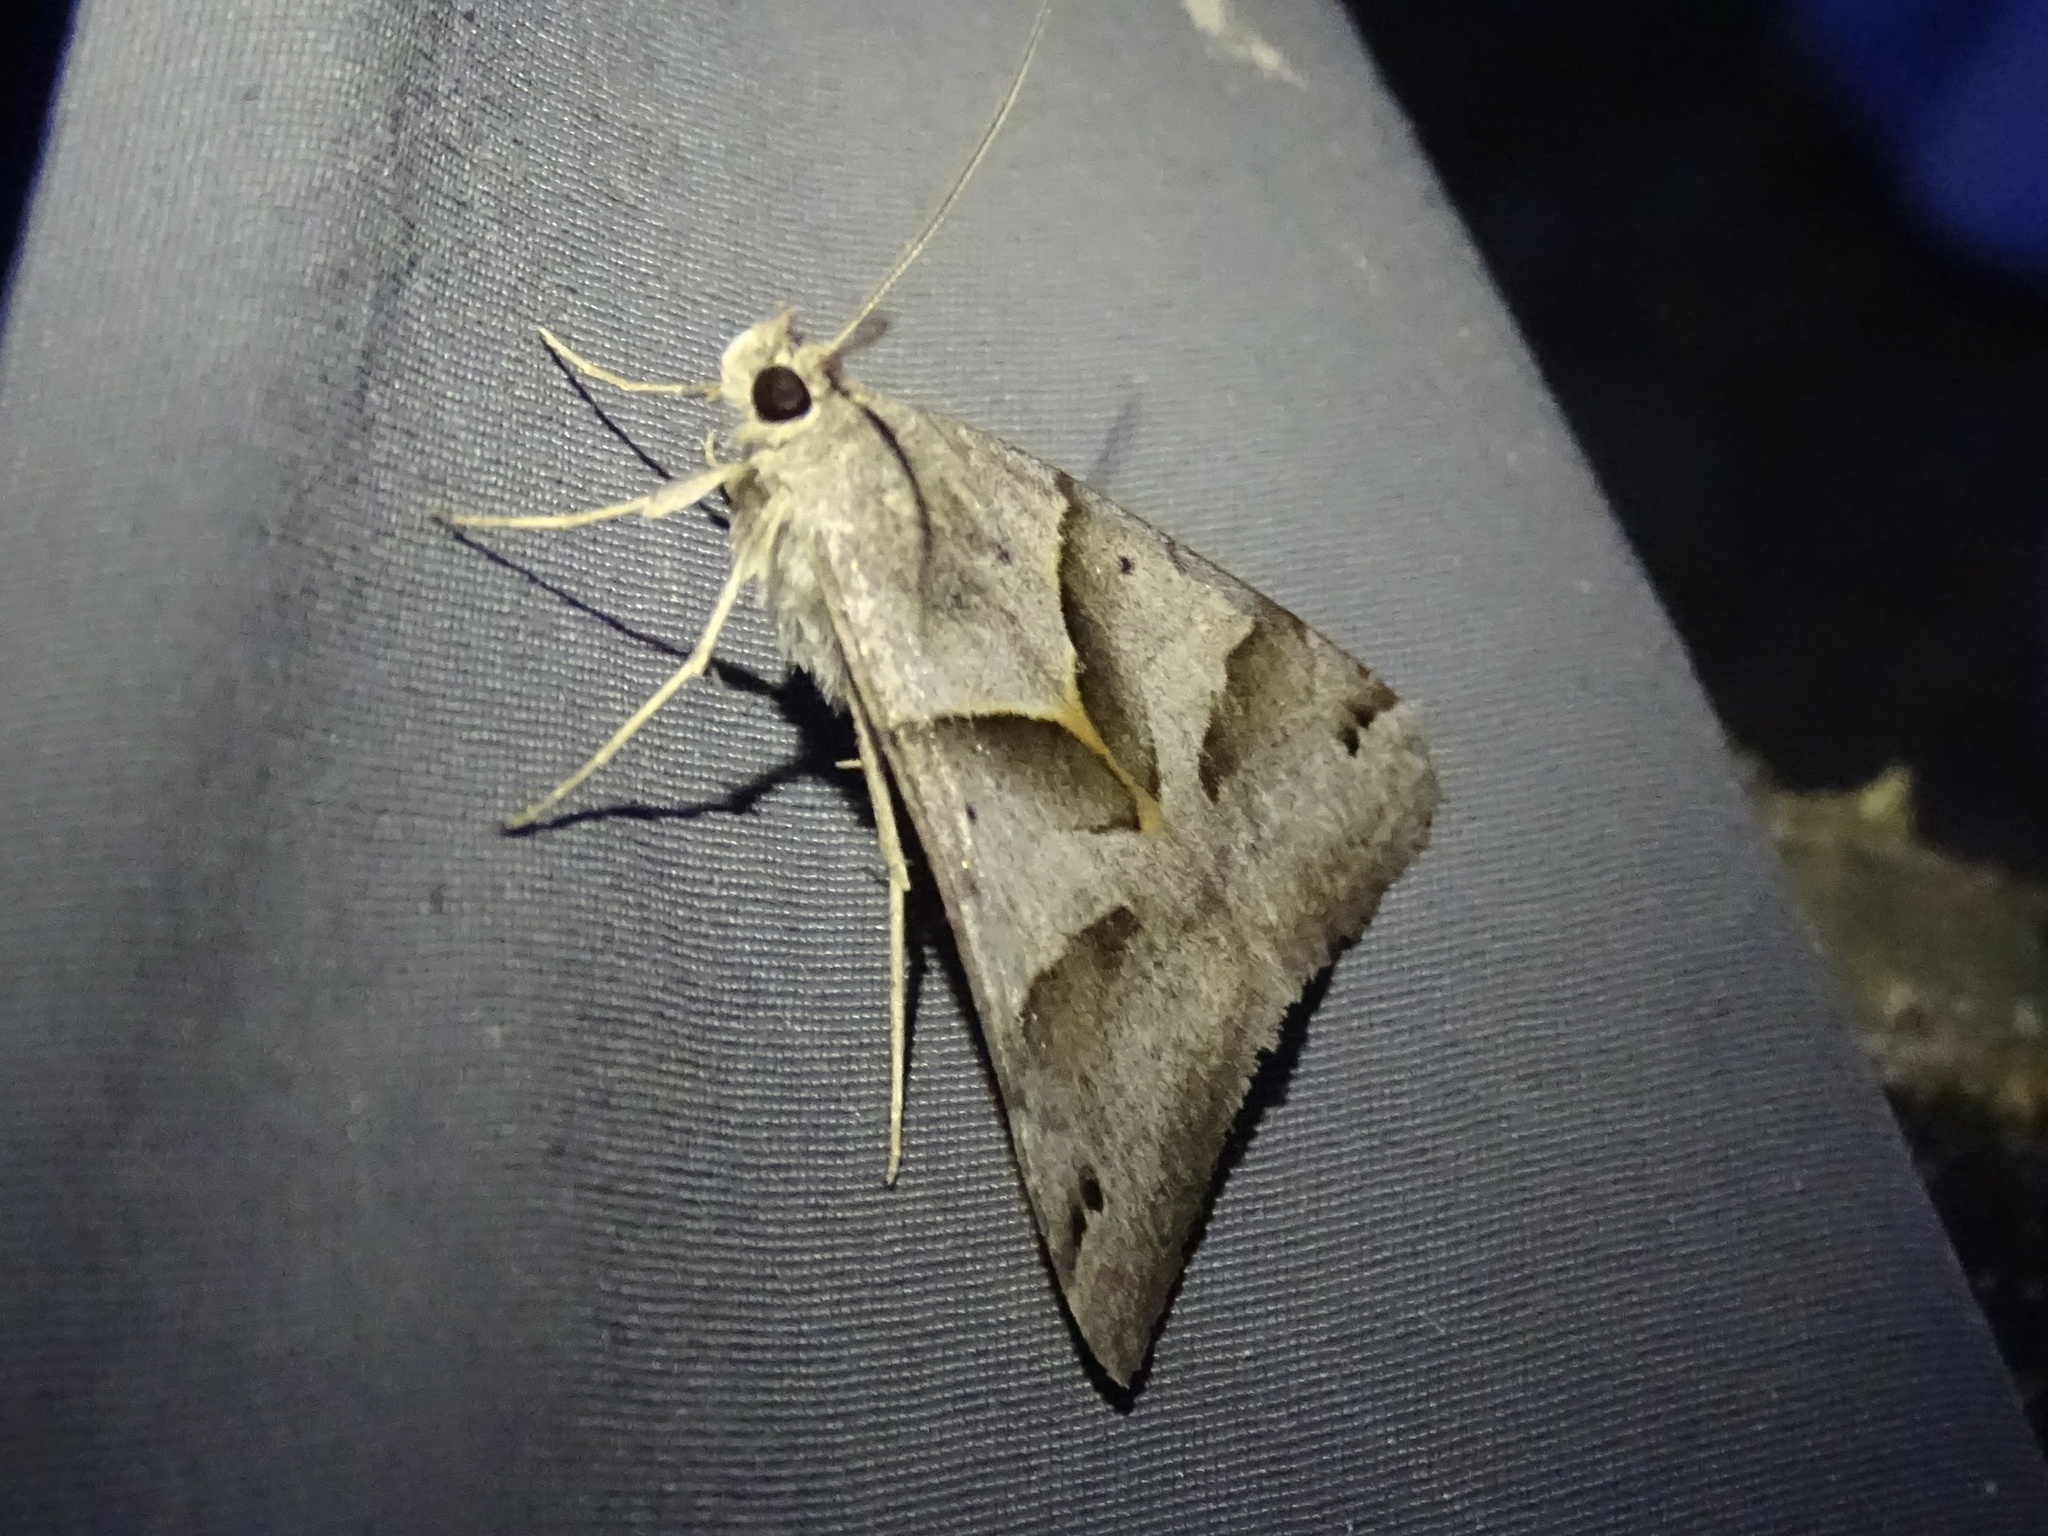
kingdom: Animalia
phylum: Arthropoda
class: Insecta
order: Lepidoptera
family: Erebidae
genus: Caenurgina
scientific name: Caenurgina erechtea
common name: Forage looper moth
